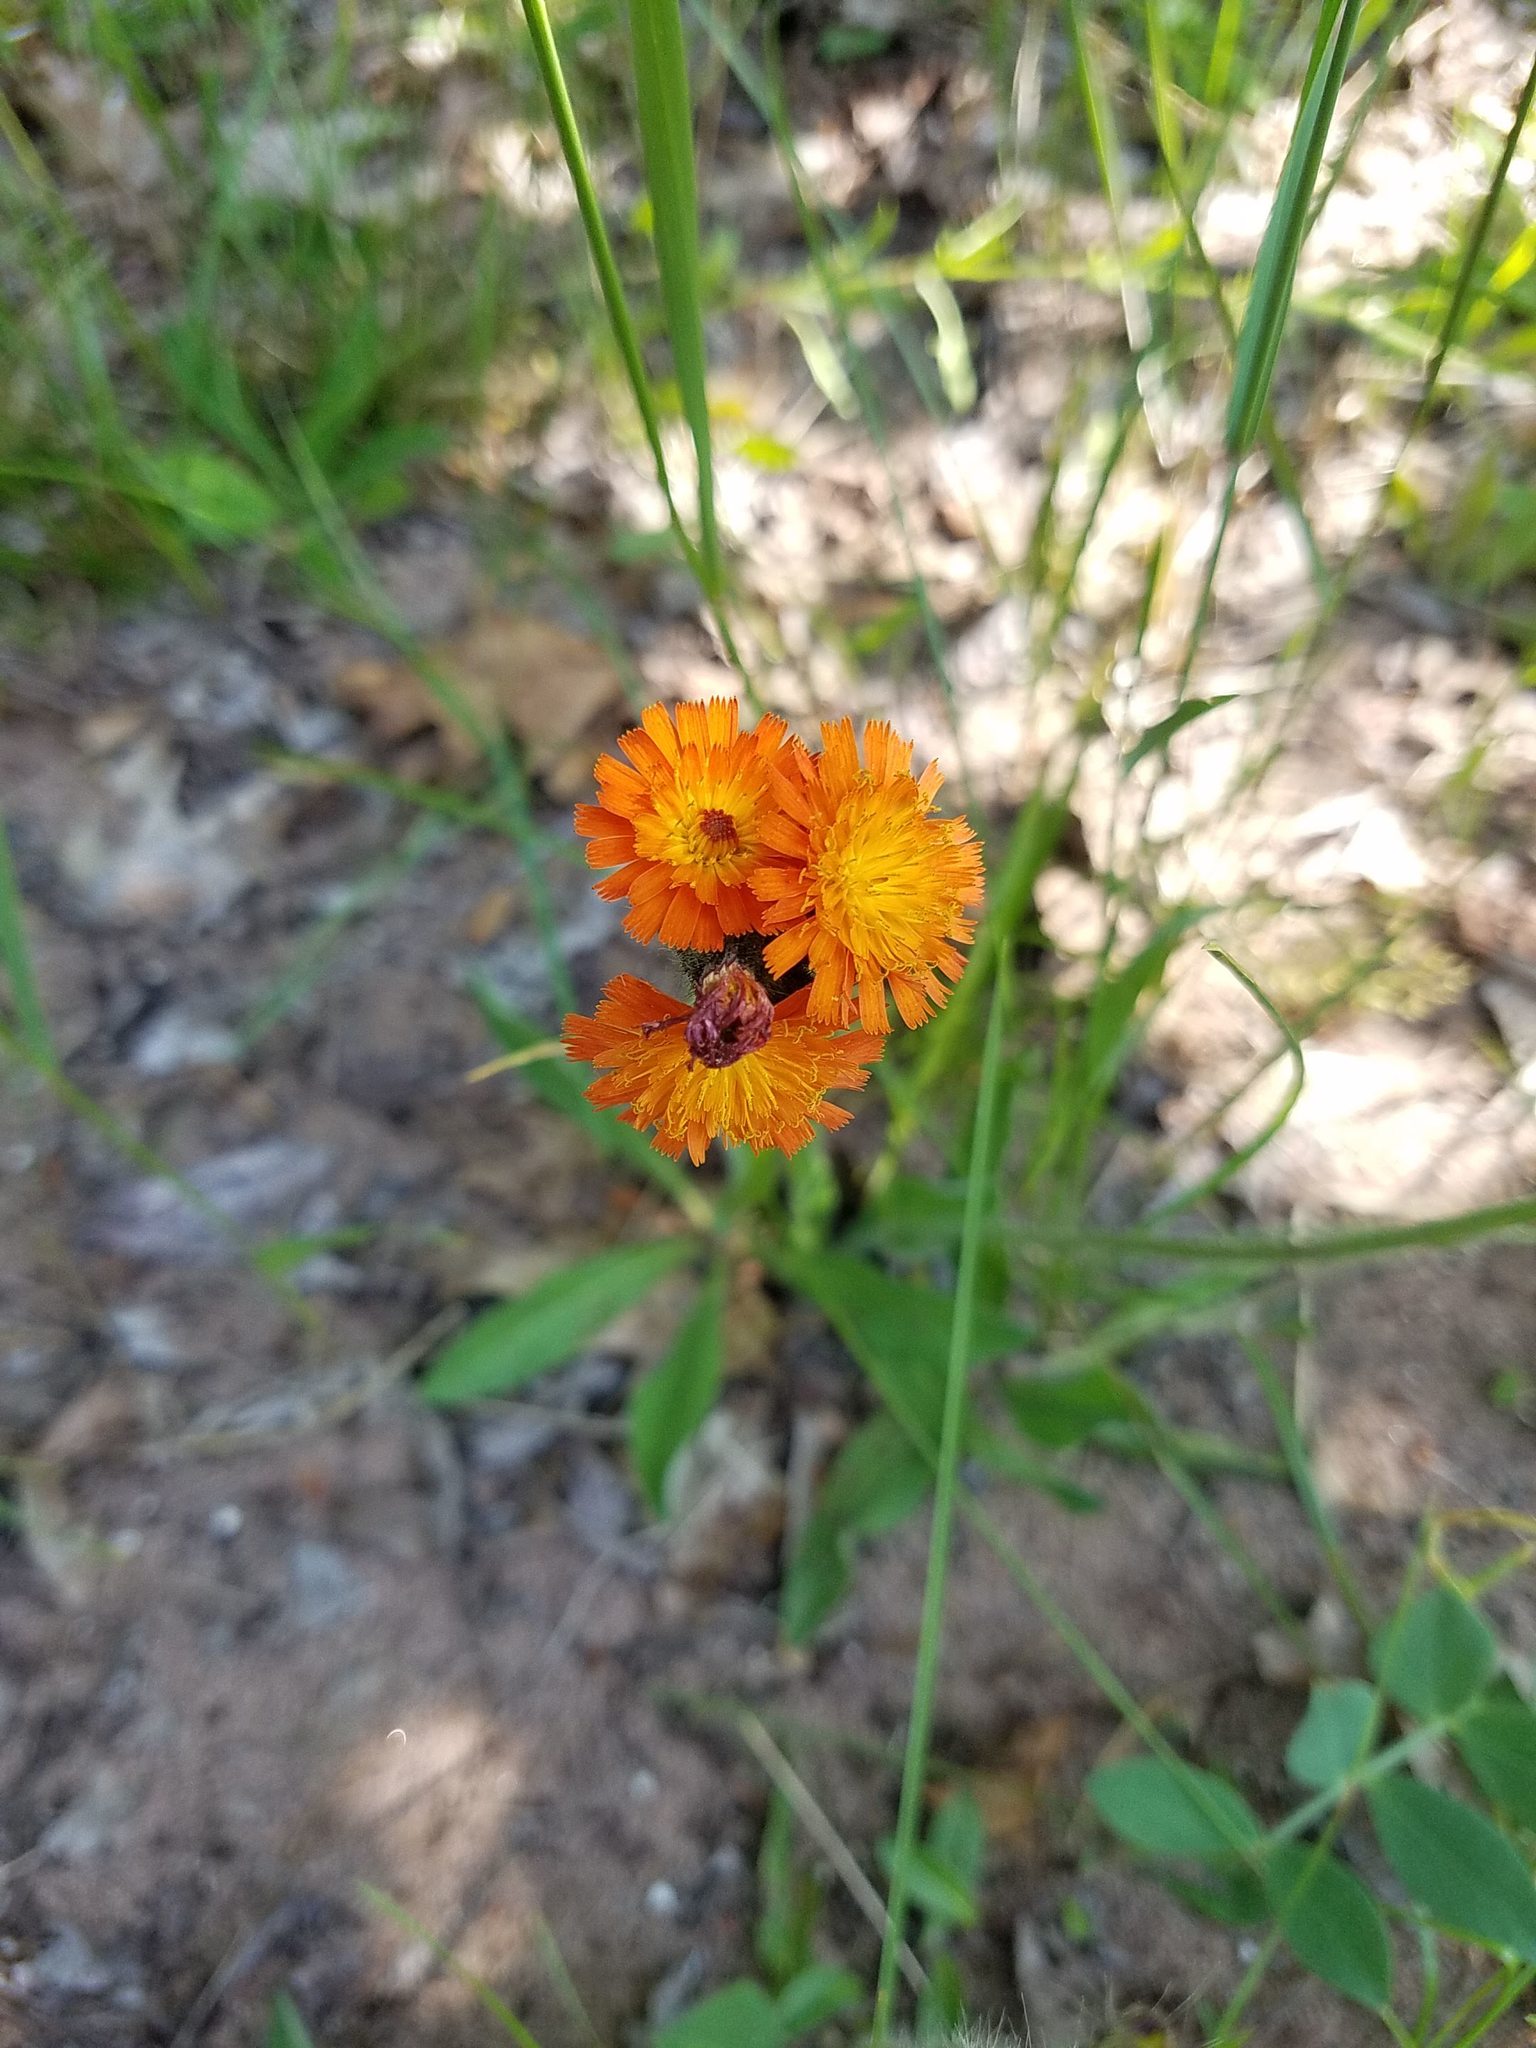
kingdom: Plantae
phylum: Tracheophyta
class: Magnoliopsida
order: Asterales
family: Asteraceae
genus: Pilosella
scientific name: Pilosella aurantiaca
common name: Fox-and-cubs
